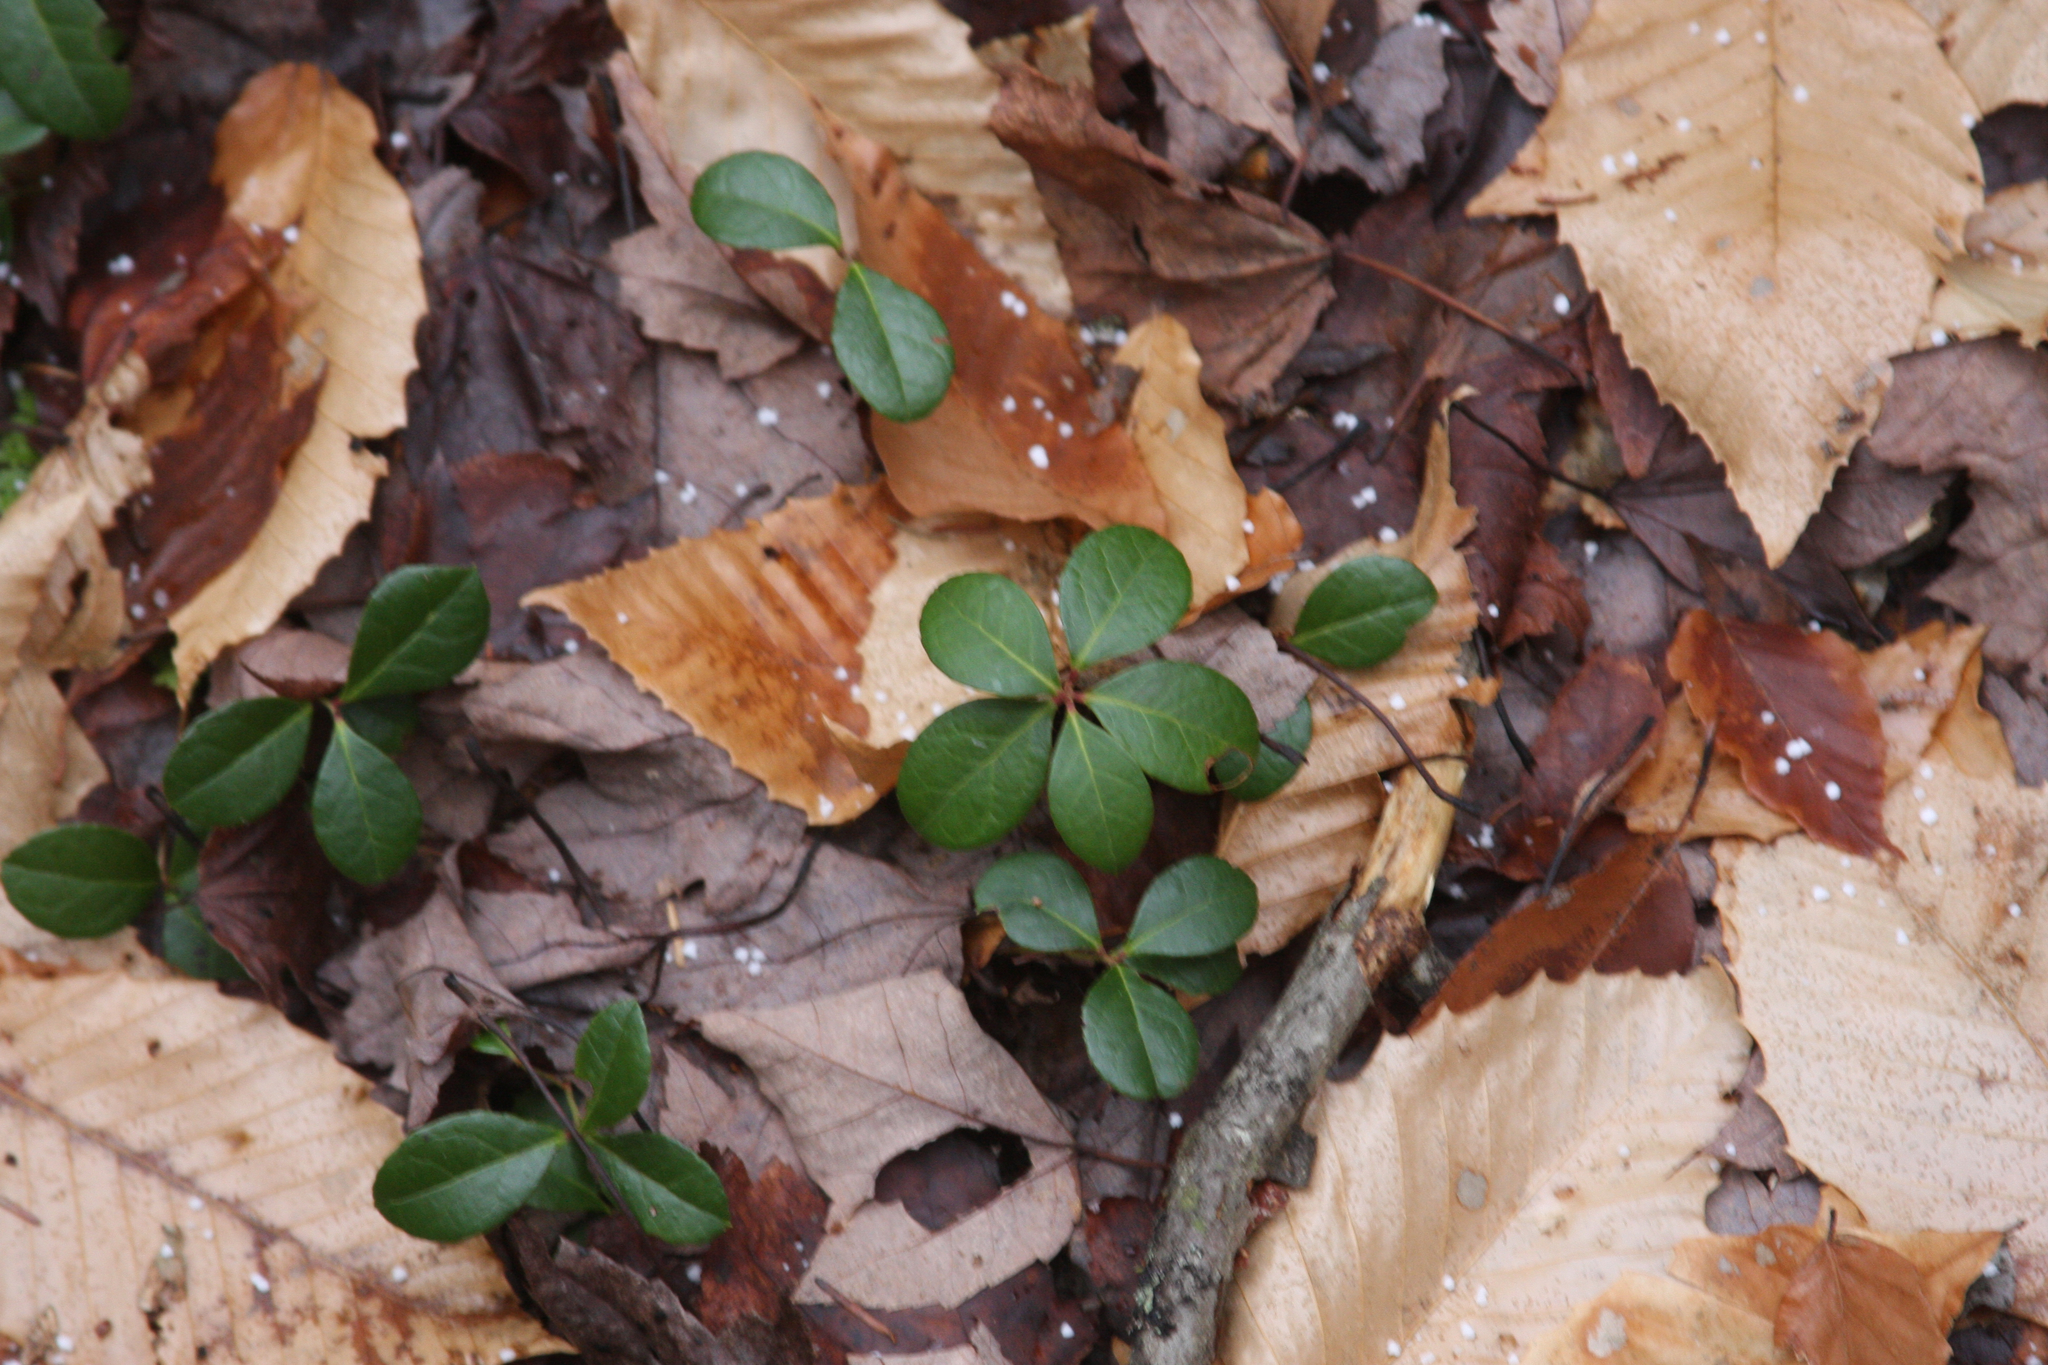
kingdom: Plantae
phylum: Tracheophyta
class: Magnoliopsida
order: Ericales
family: Ericaceae
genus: Gaultheria
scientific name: Gaultheria procumbens
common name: Checkerberry
